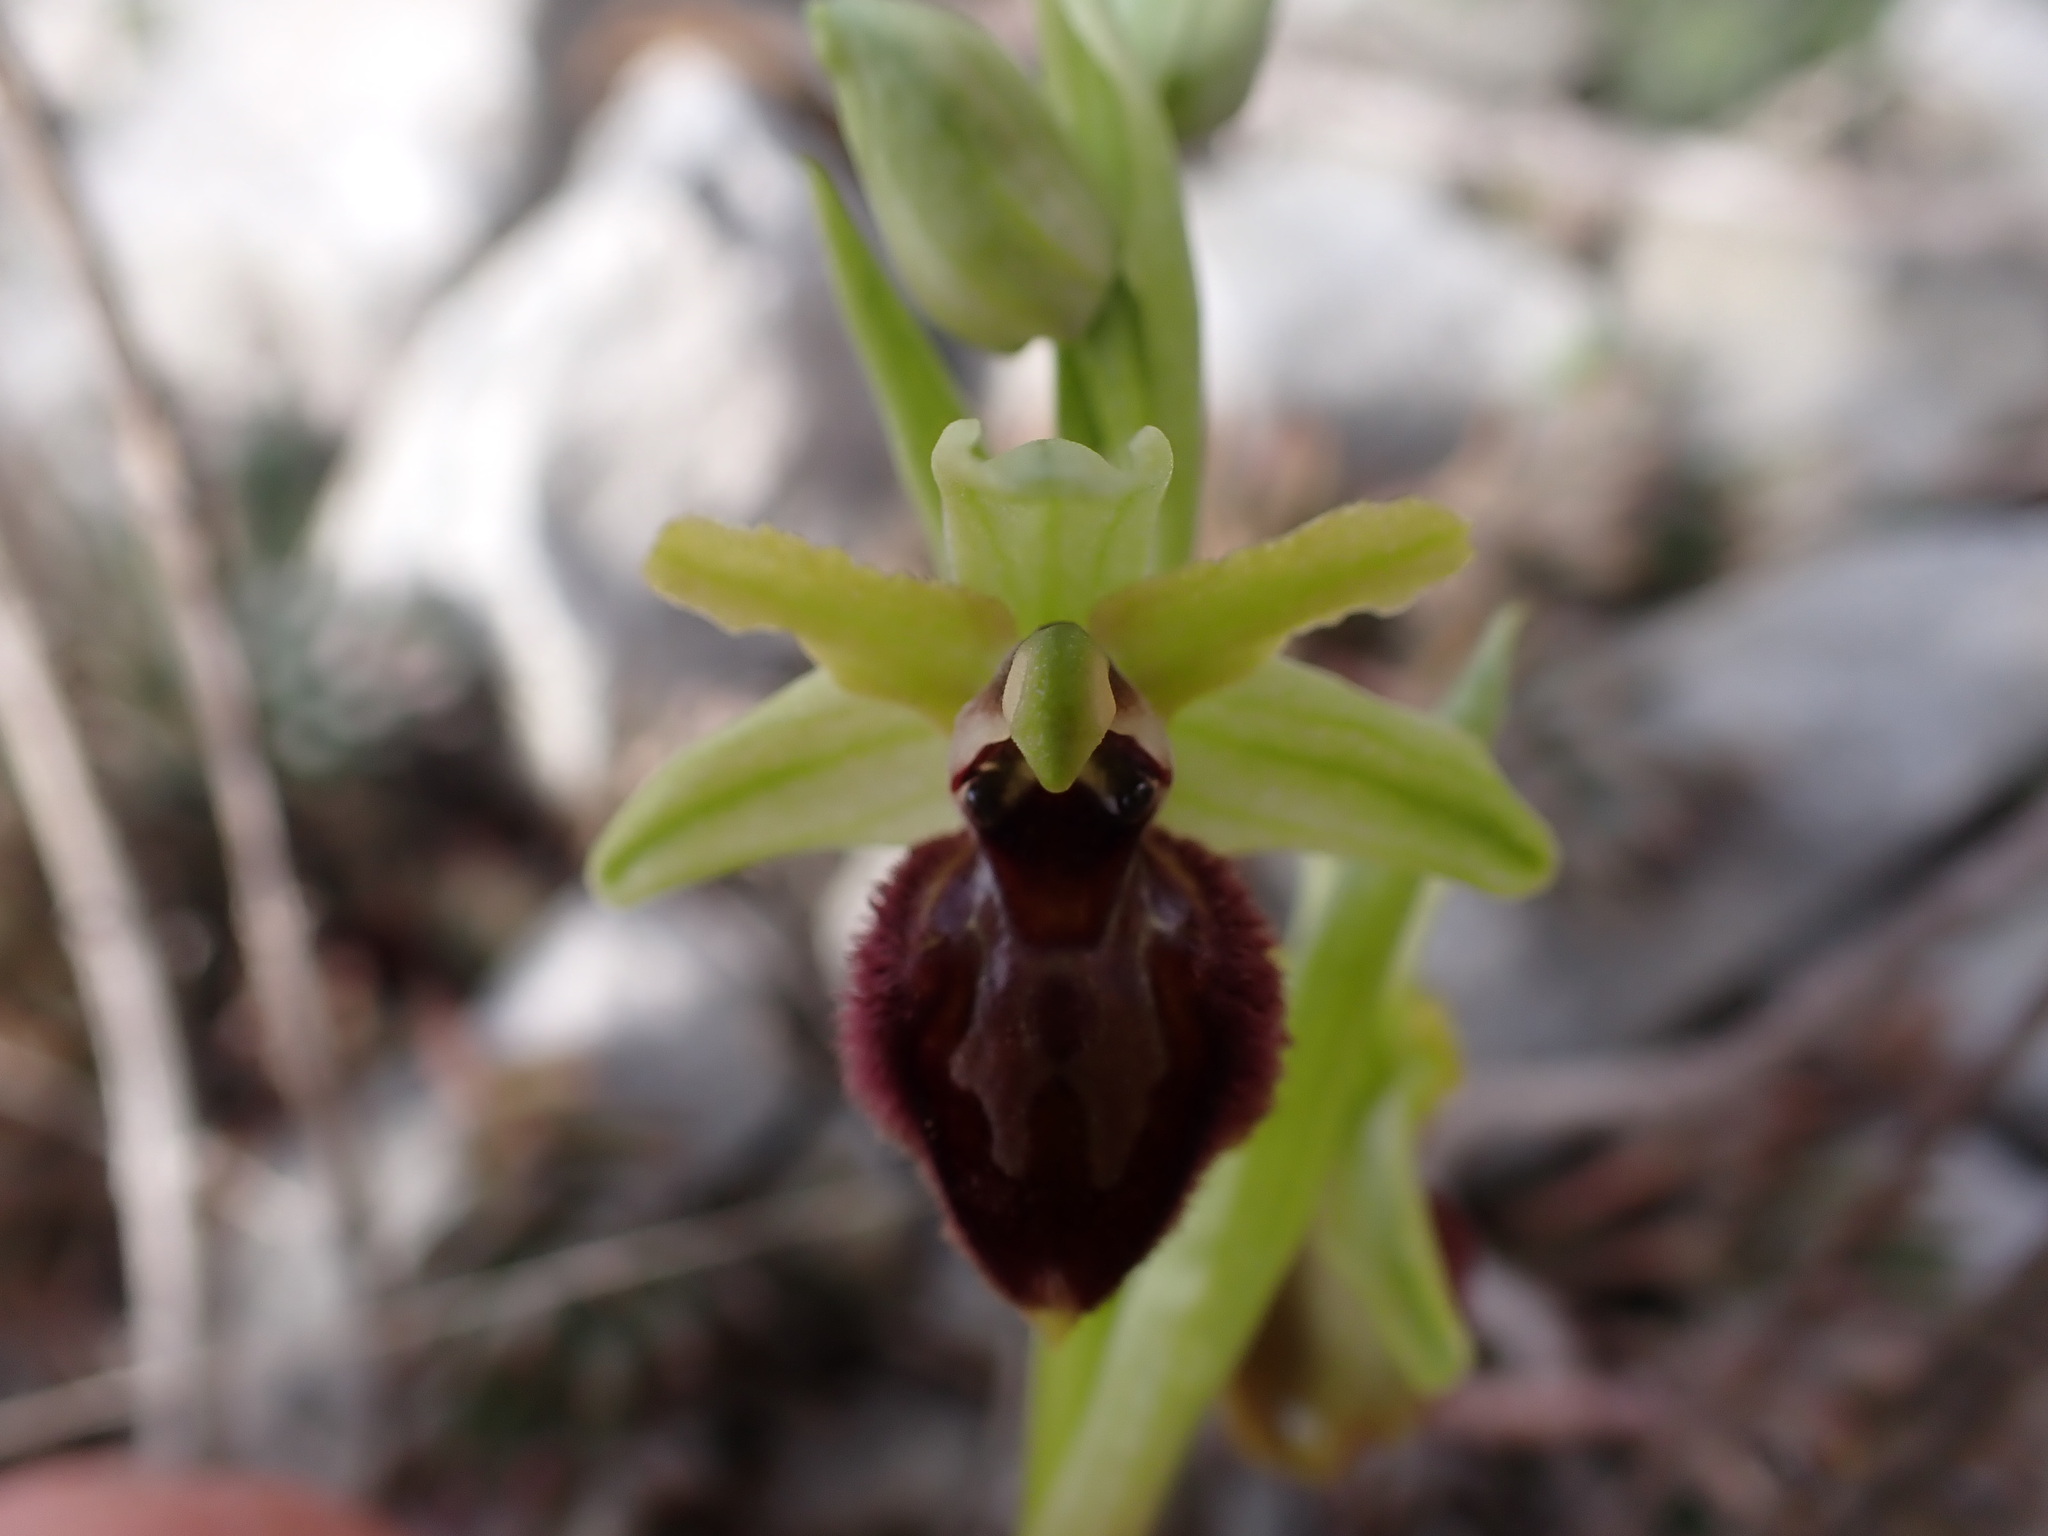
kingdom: Plantae
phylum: Tracheophyta
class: Liliopsida
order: Asparagales
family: Orchidaceae
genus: Ophrys
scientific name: Ophrys arachnitiformis
